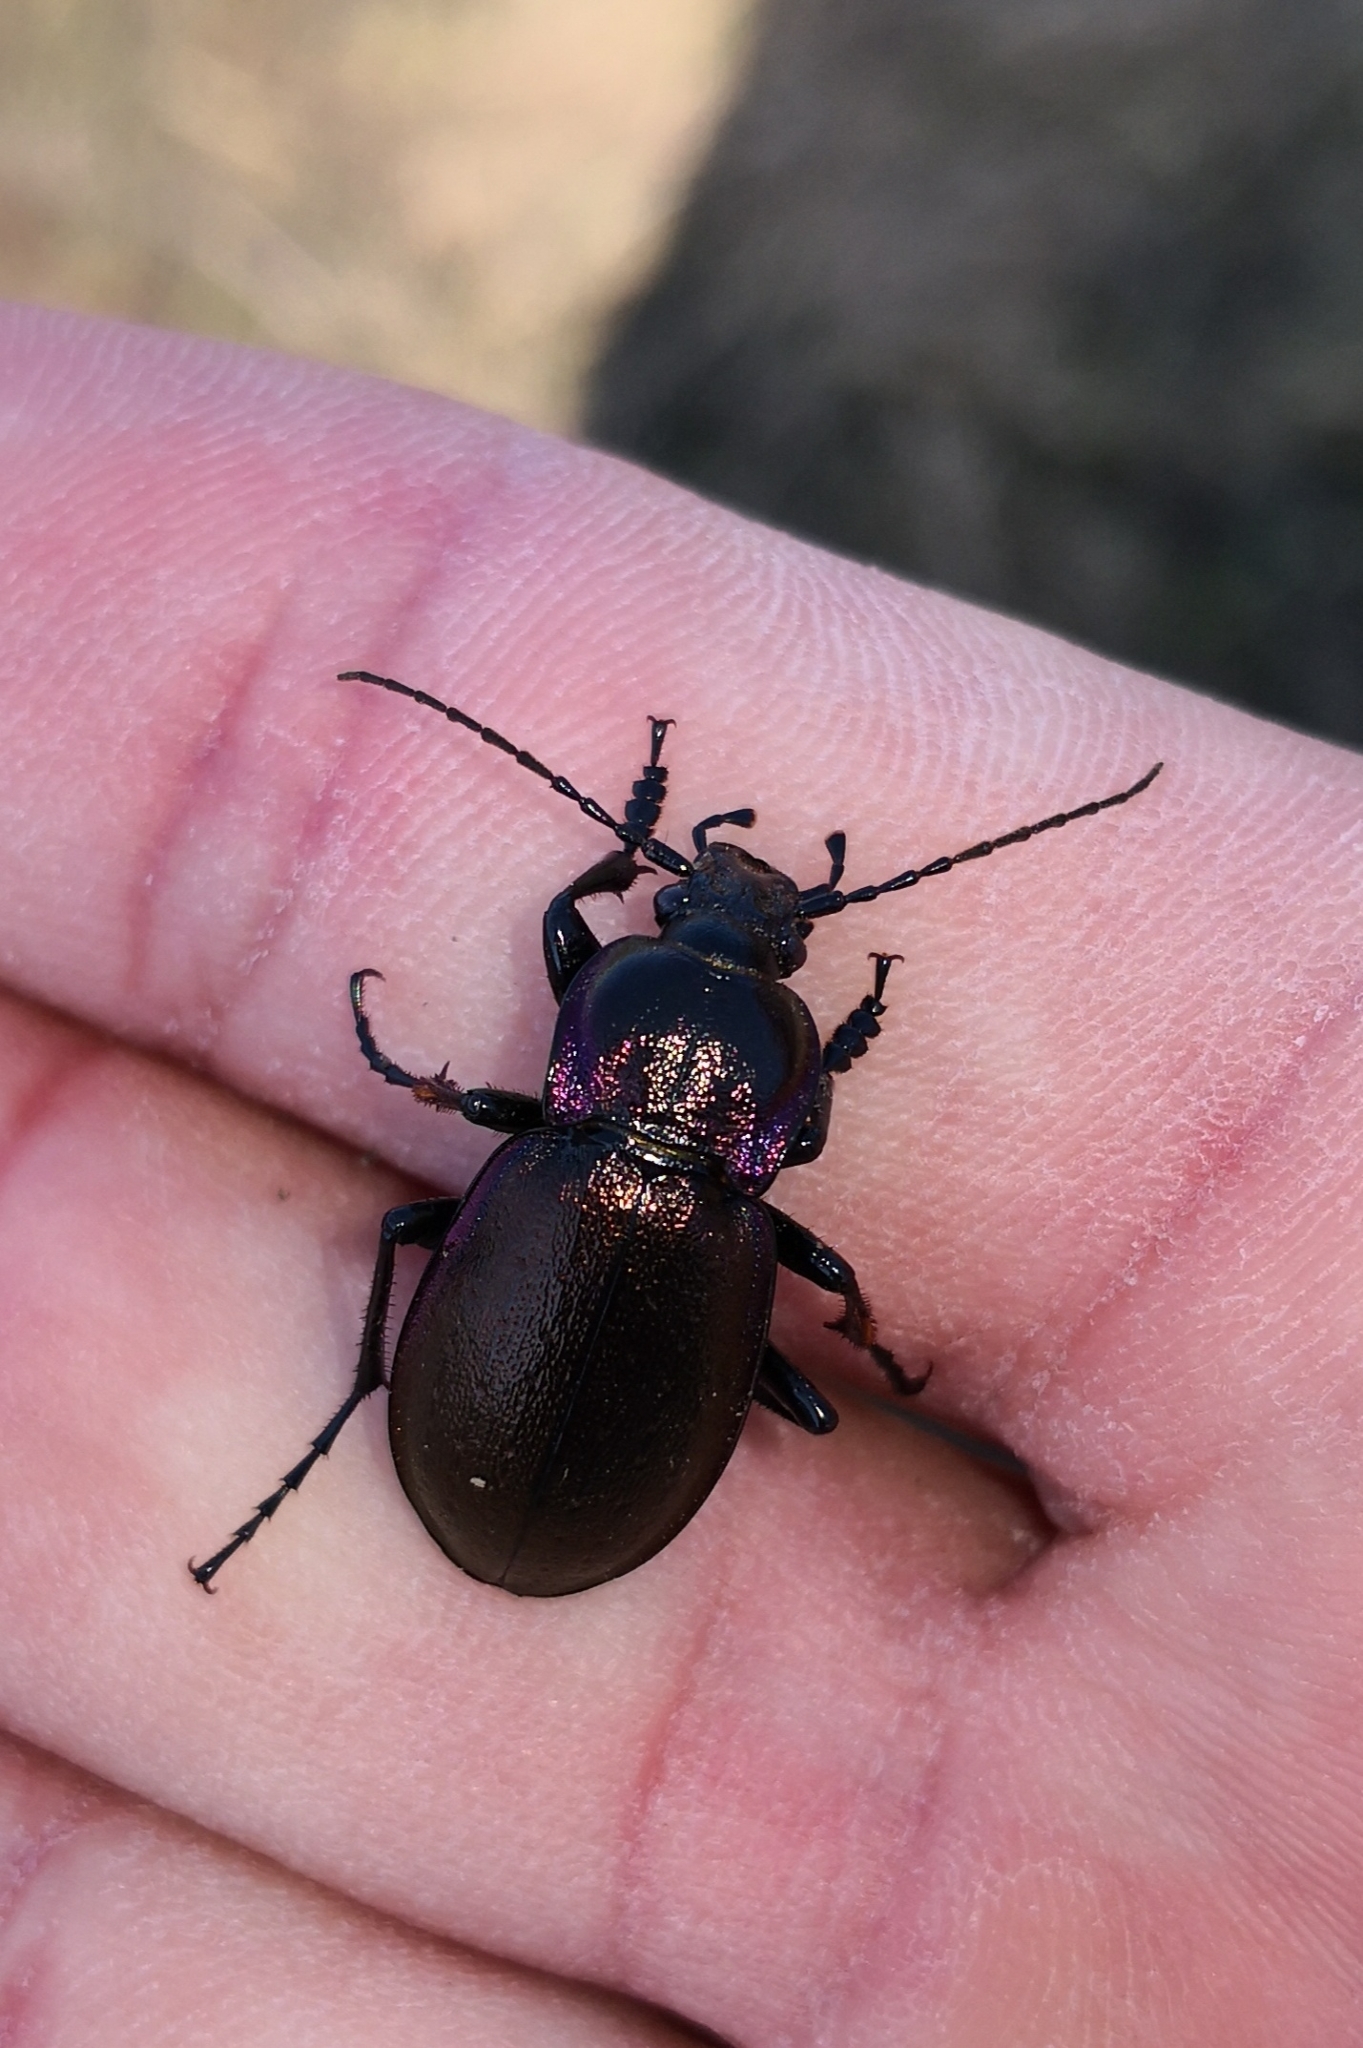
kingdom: Animalia
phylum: Arthropoda
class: Insecta
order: Coleoptera
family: Carabidae
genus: Carabus
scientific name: Carabus nemoralis
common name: European ground beetle
